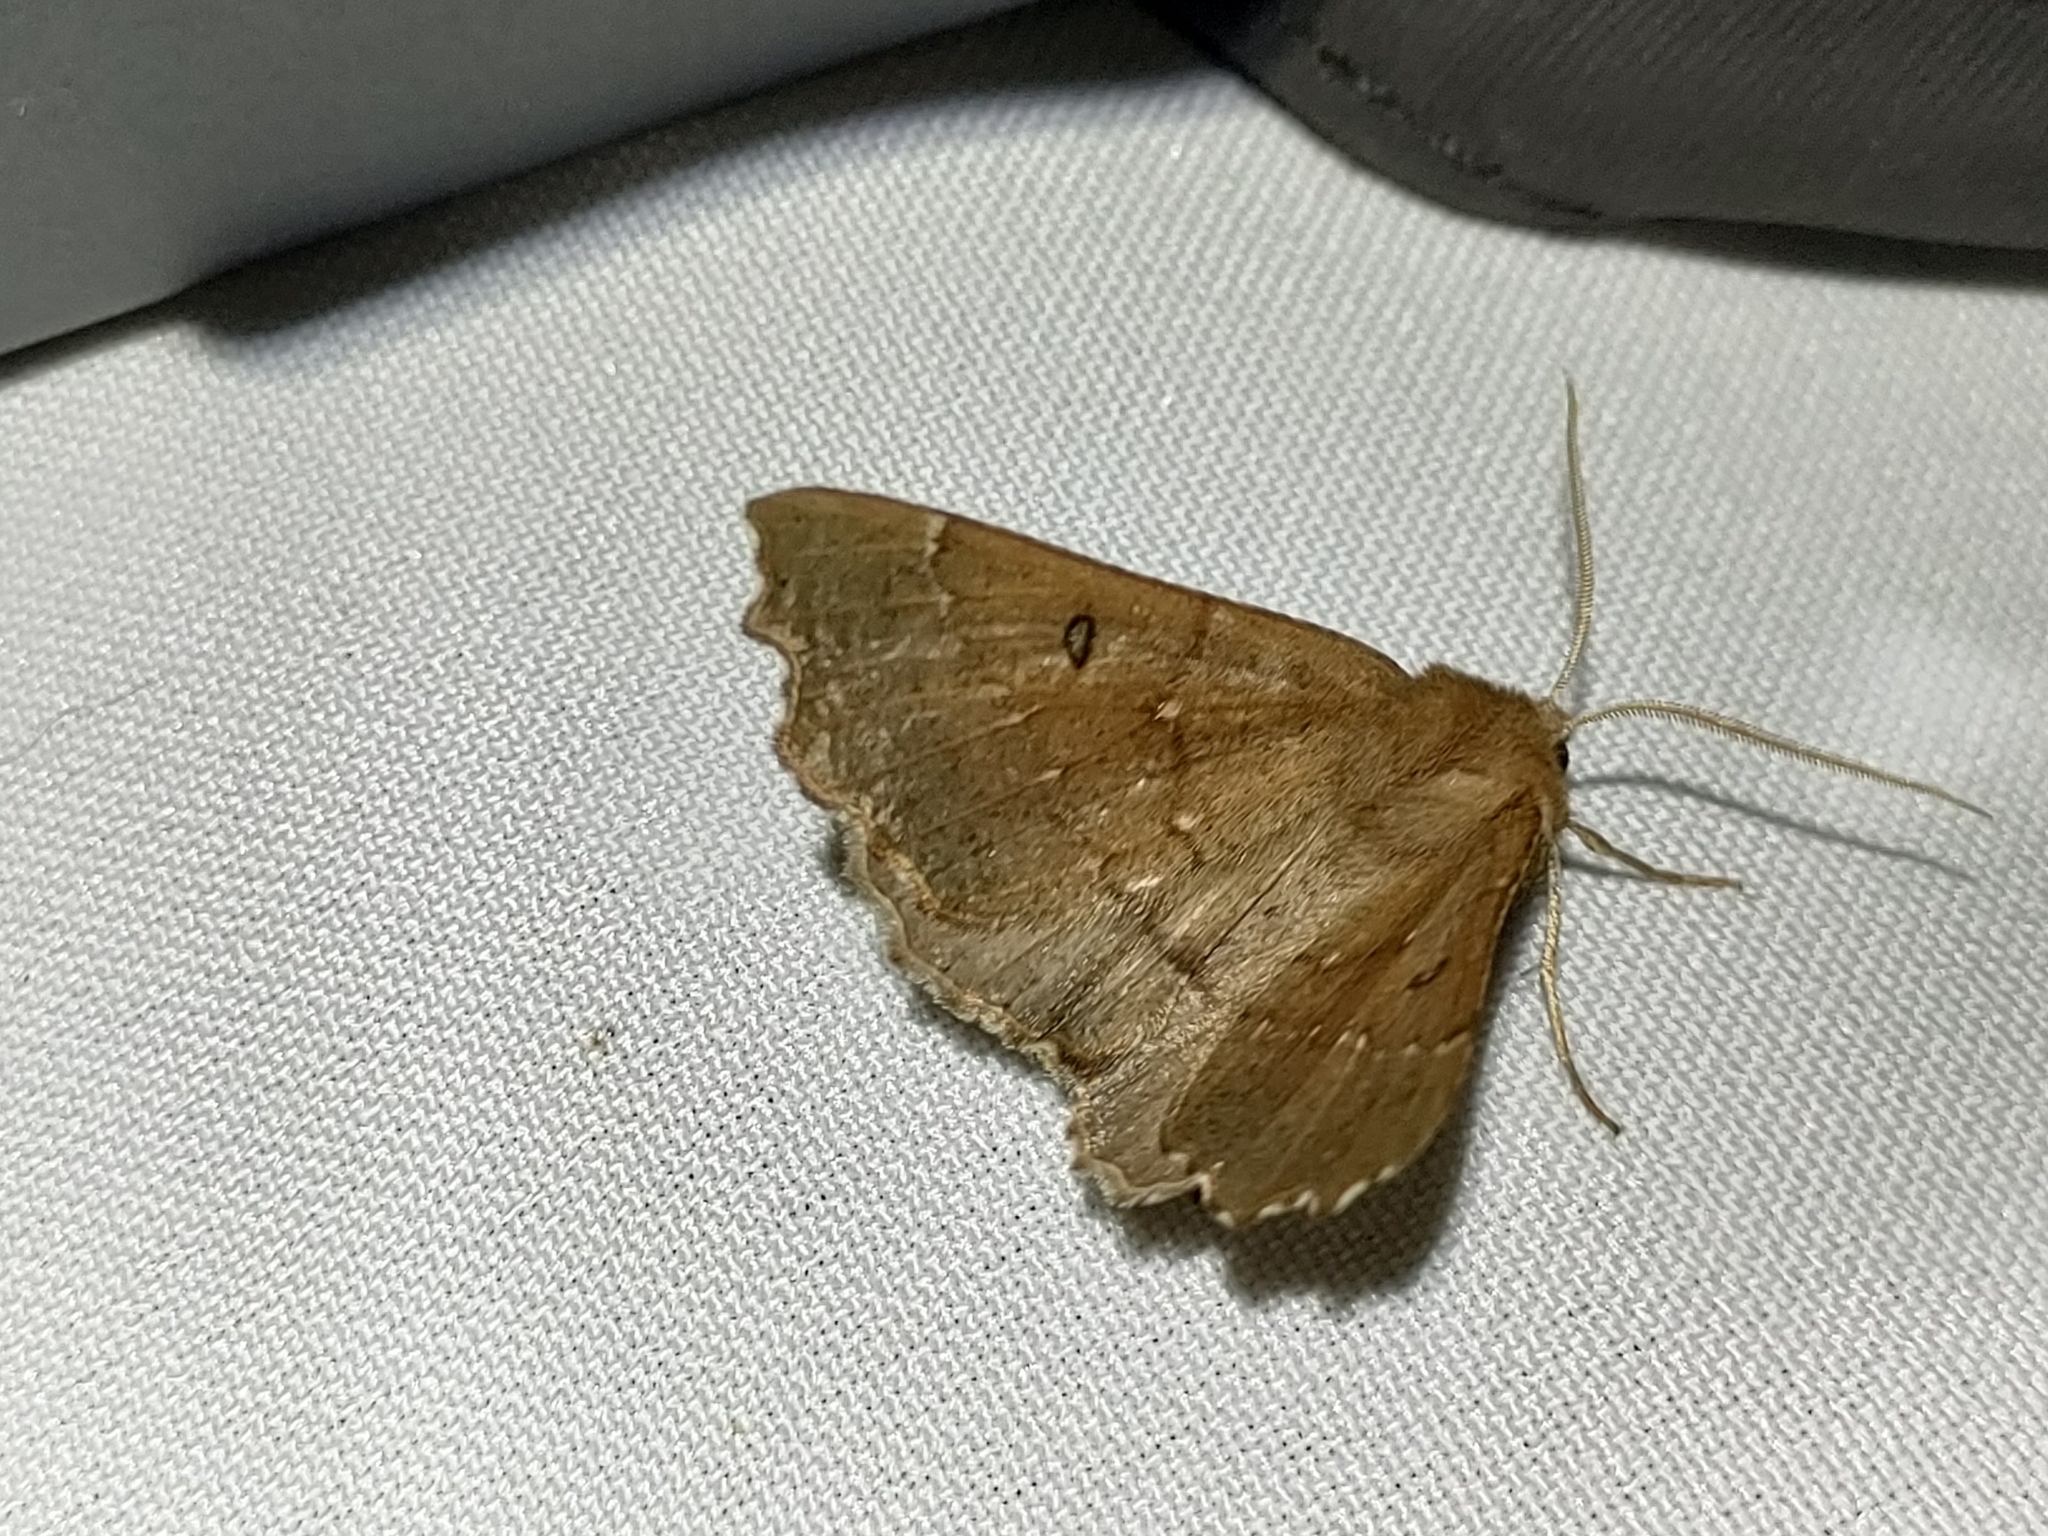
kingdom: Animalia
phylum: Arthropoda
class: Insecta
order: Lepidoptera
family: Geometridae
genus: Odontopera
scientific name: Odontopera bidentata
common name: Scalloped hazel
